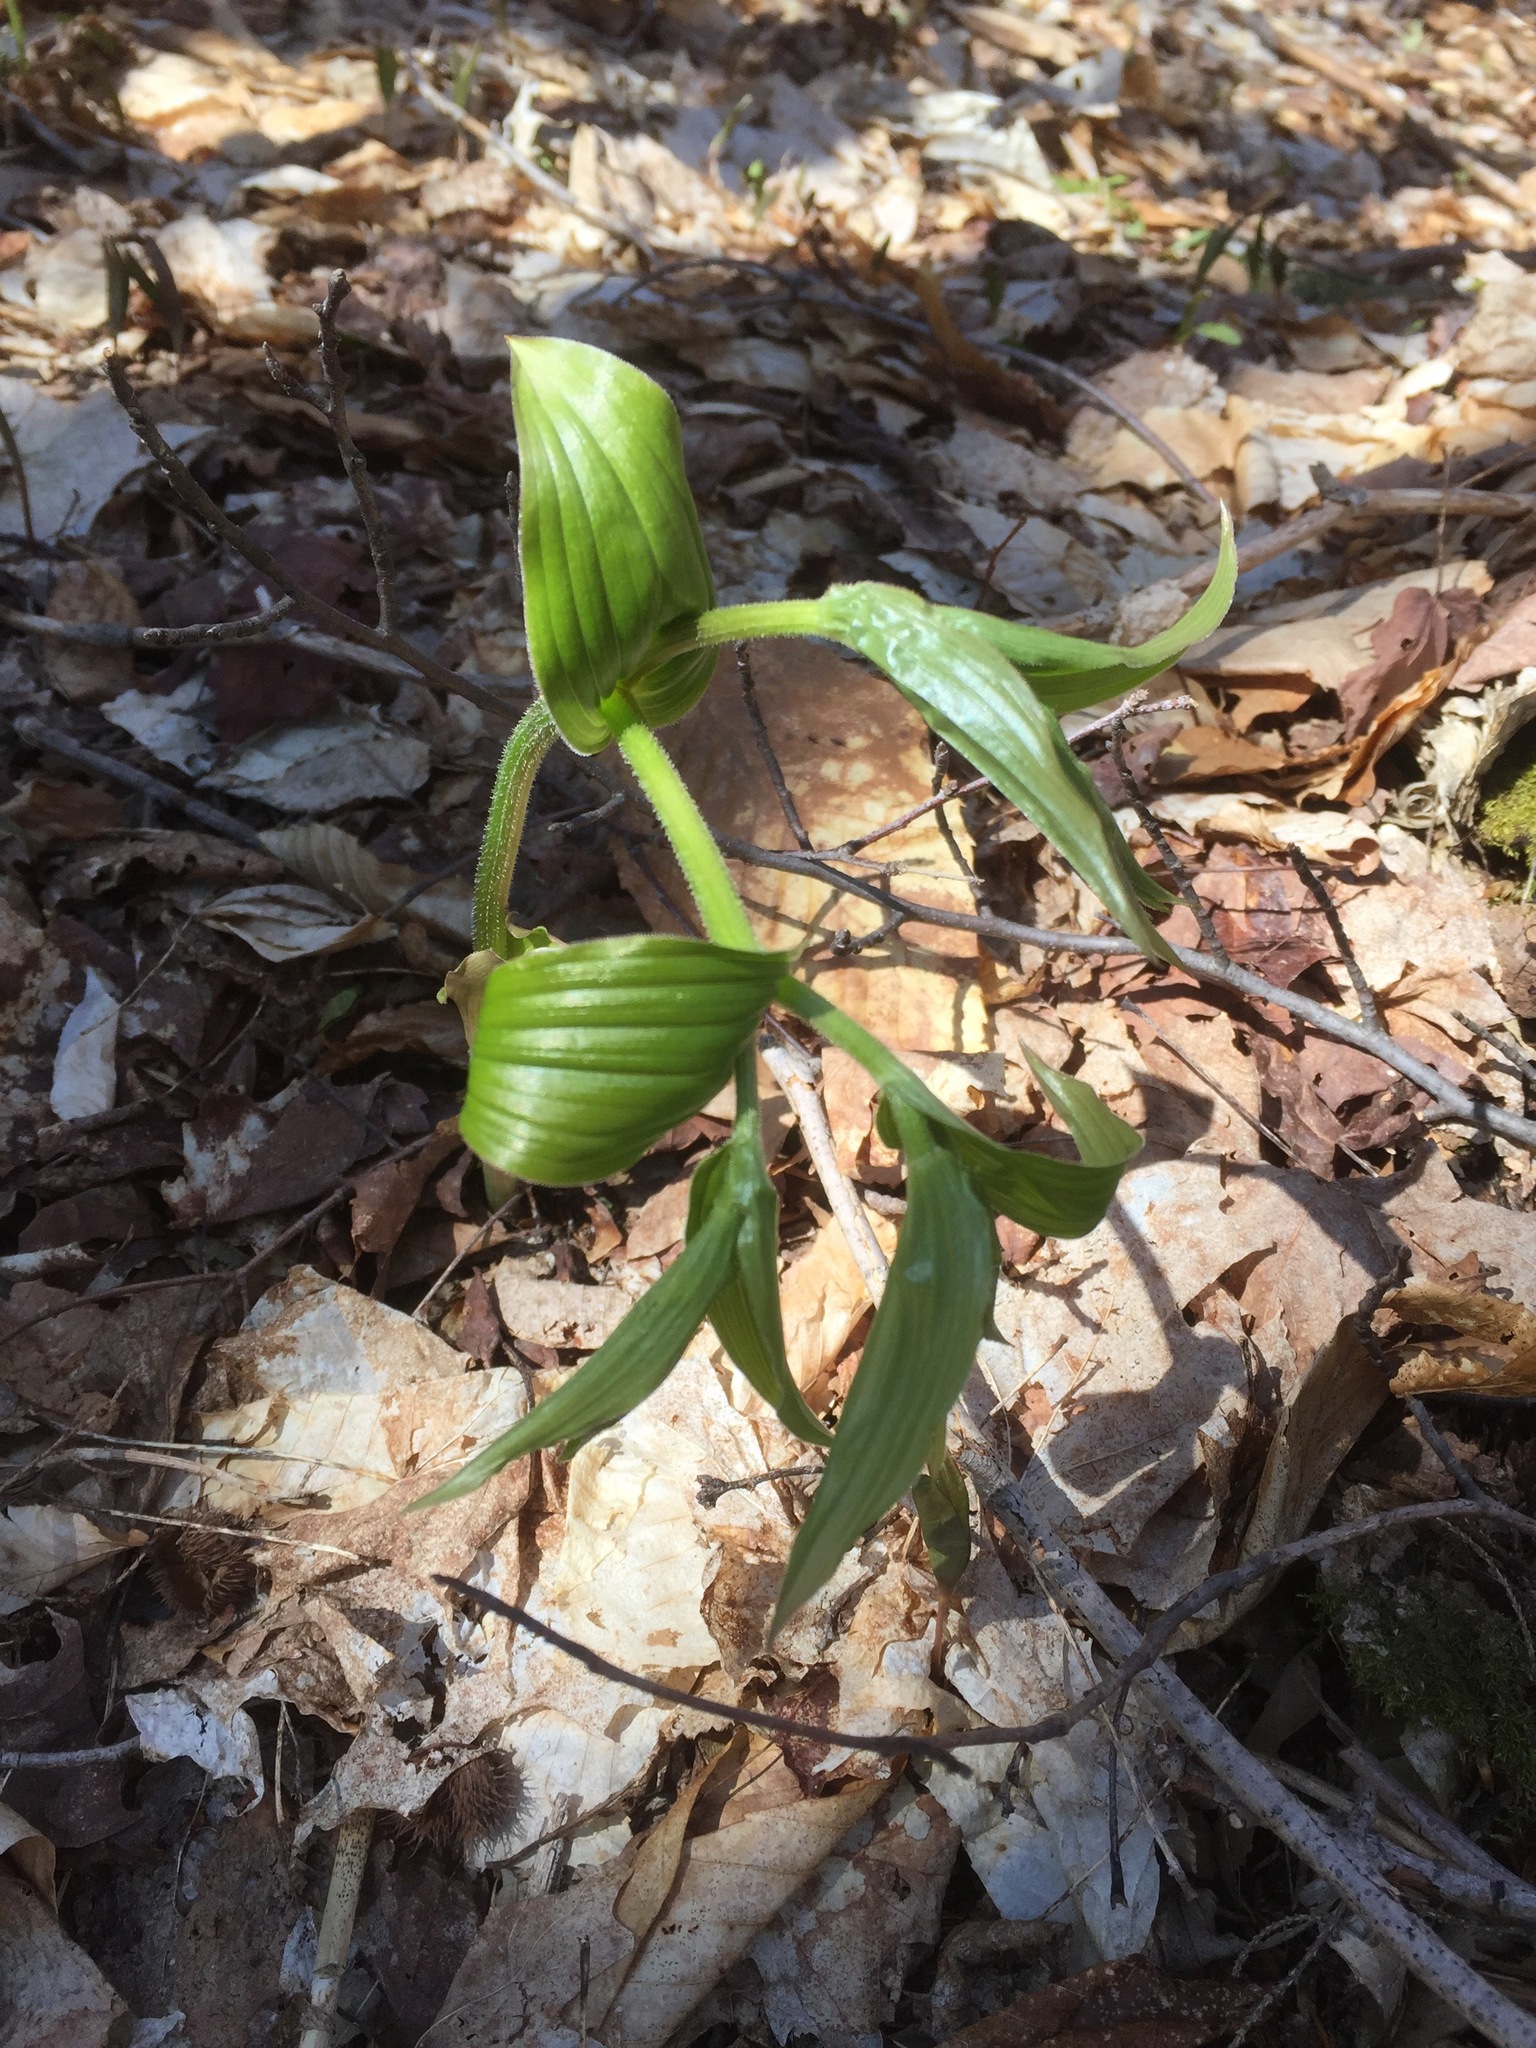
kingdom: Plantae
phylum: Tracheophyta
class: Liliopsida
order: Liliales
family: Liliaceae
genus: Streptopus
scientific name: Streptopus lanceolatus
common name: Rose mandarin
